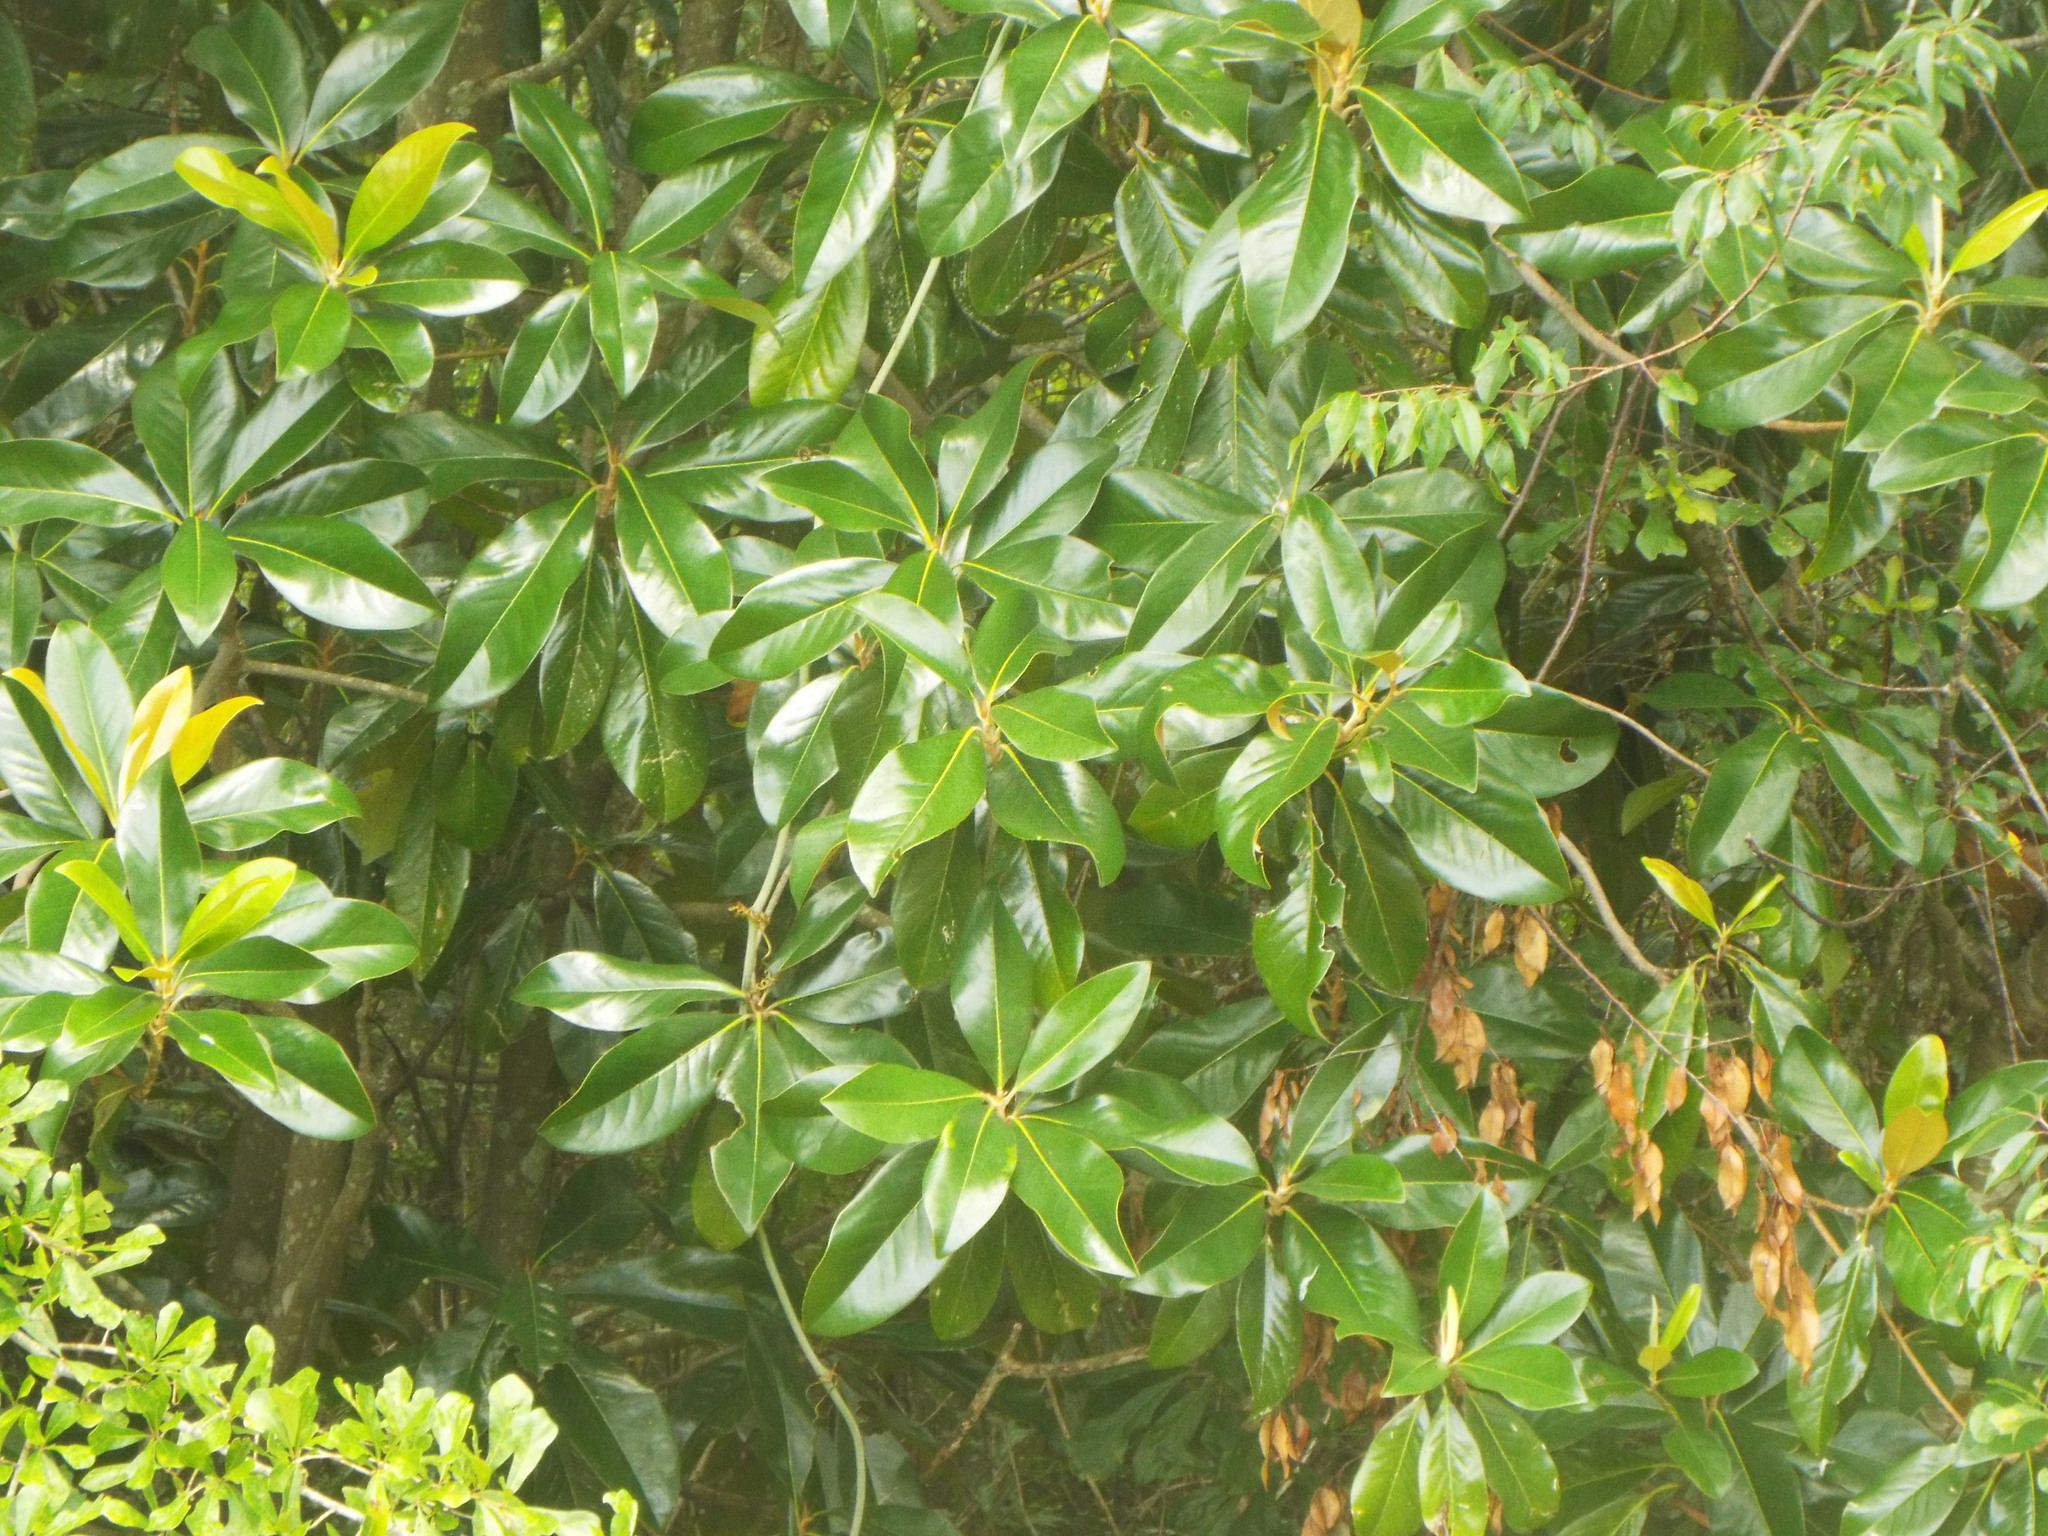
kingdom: Plantae
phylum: Tracheophyta
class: Magnoliopsida
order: Magnoliales
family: Magnoliaceae
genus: Magnolia
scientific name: Magnolia grandiflora
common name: Southern magnolia
